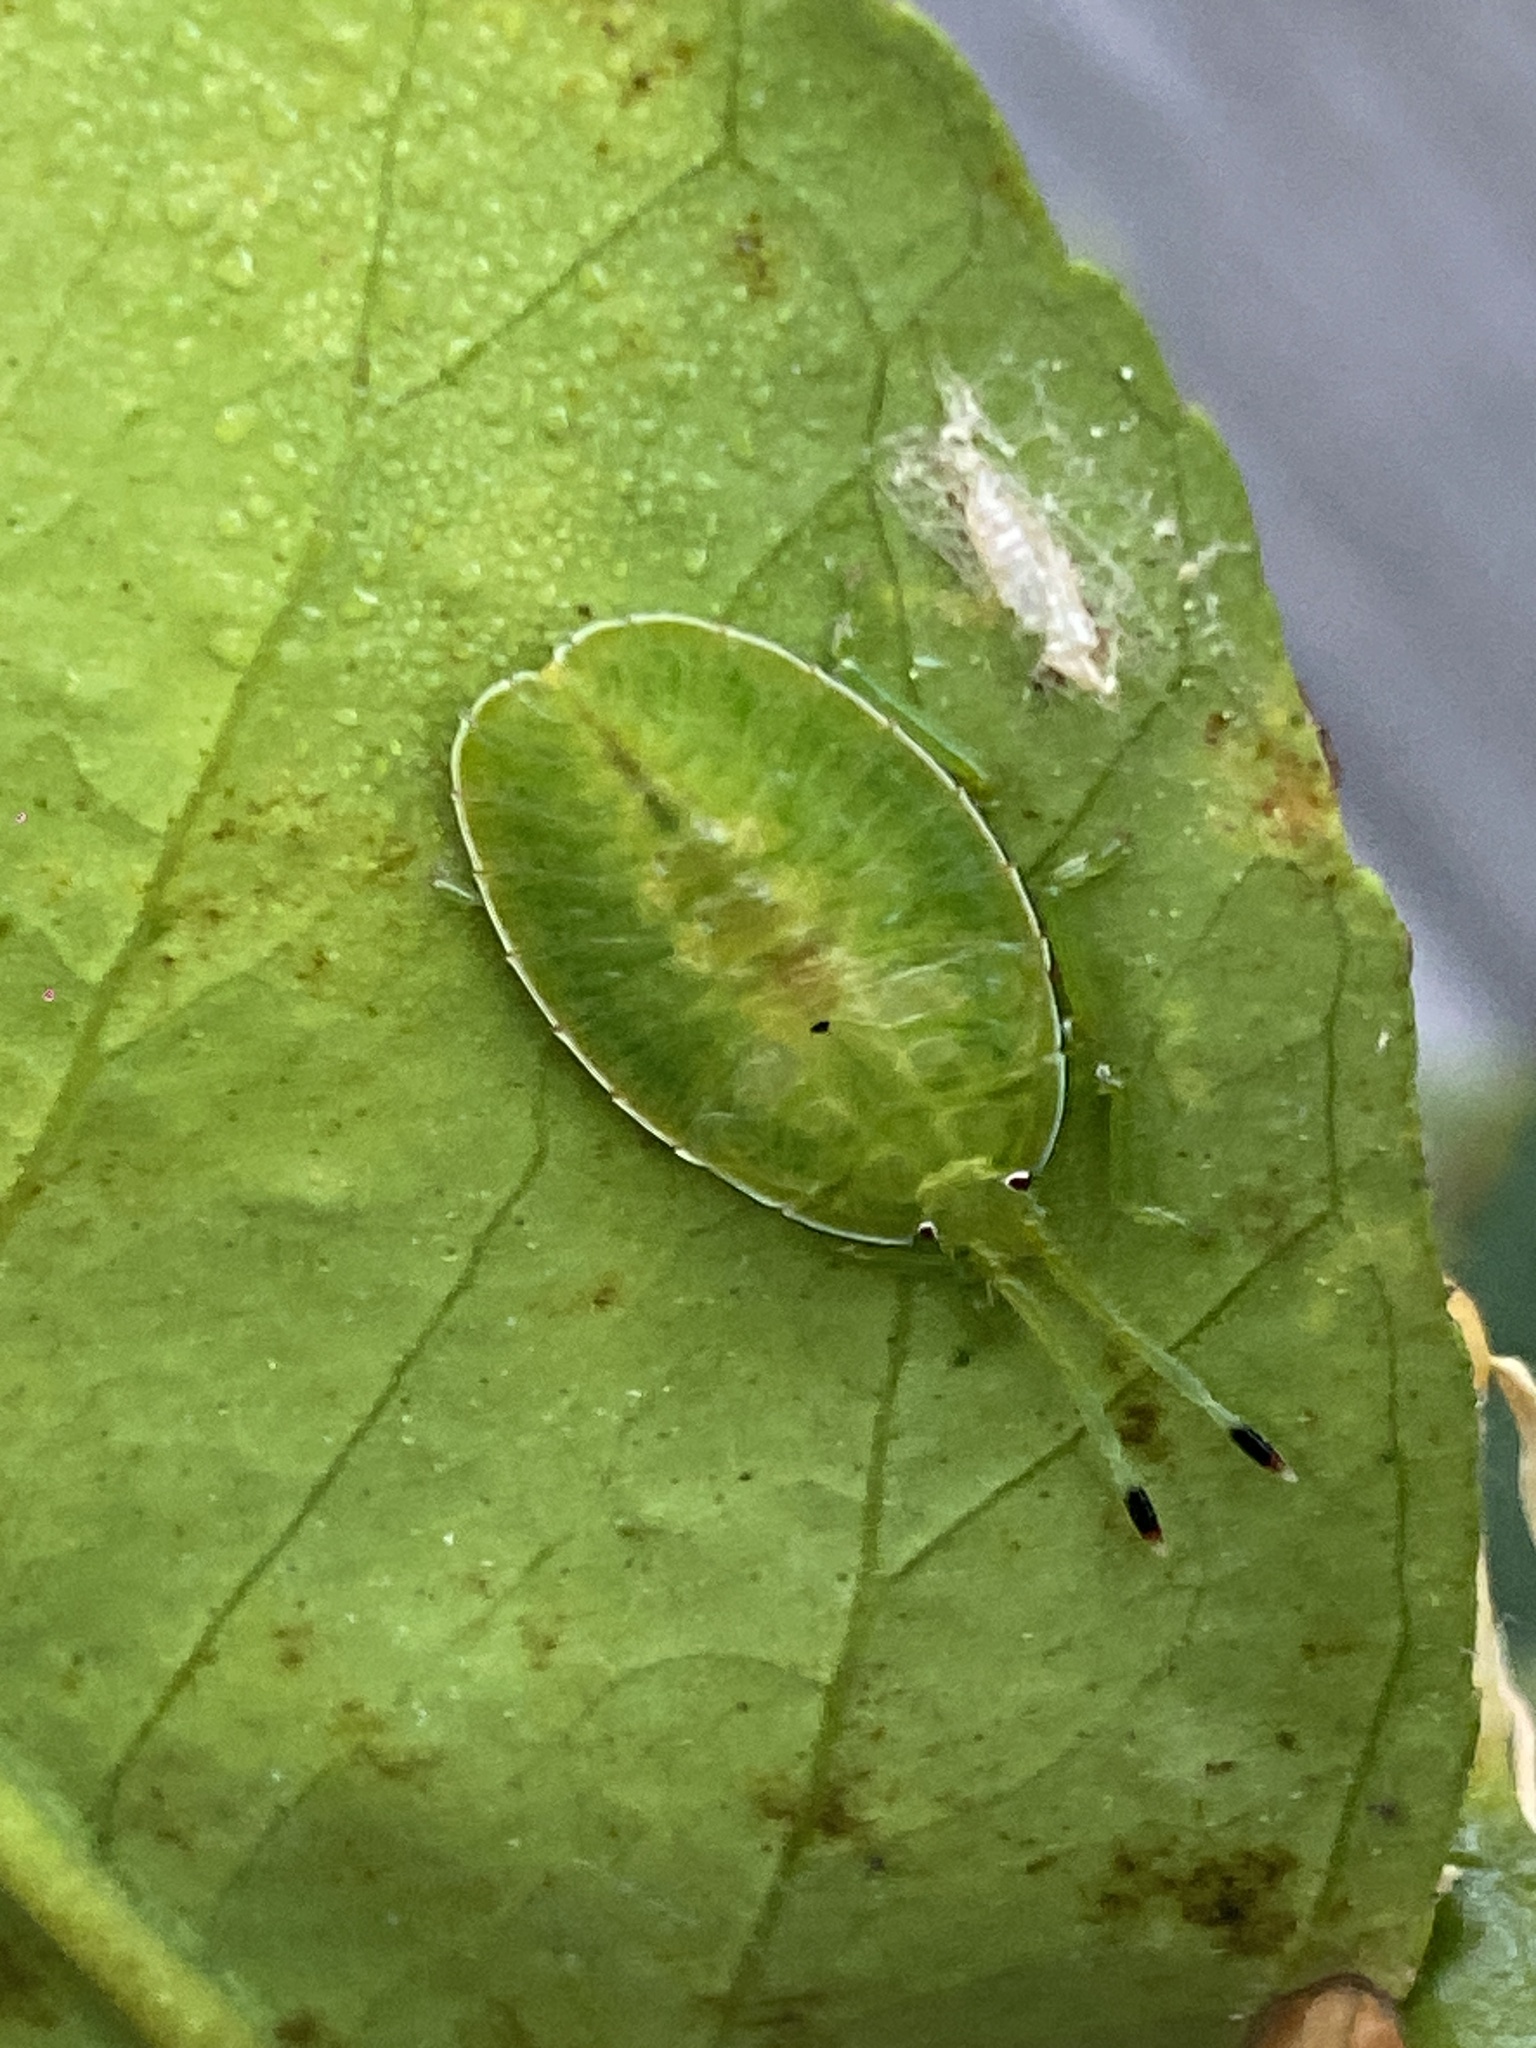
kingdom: Animalia
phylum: Arthropoda
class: Insecta
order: Hemiptera
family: Tessaratomidae
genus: Musgraveia
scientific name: Musgraveia sulciventris
